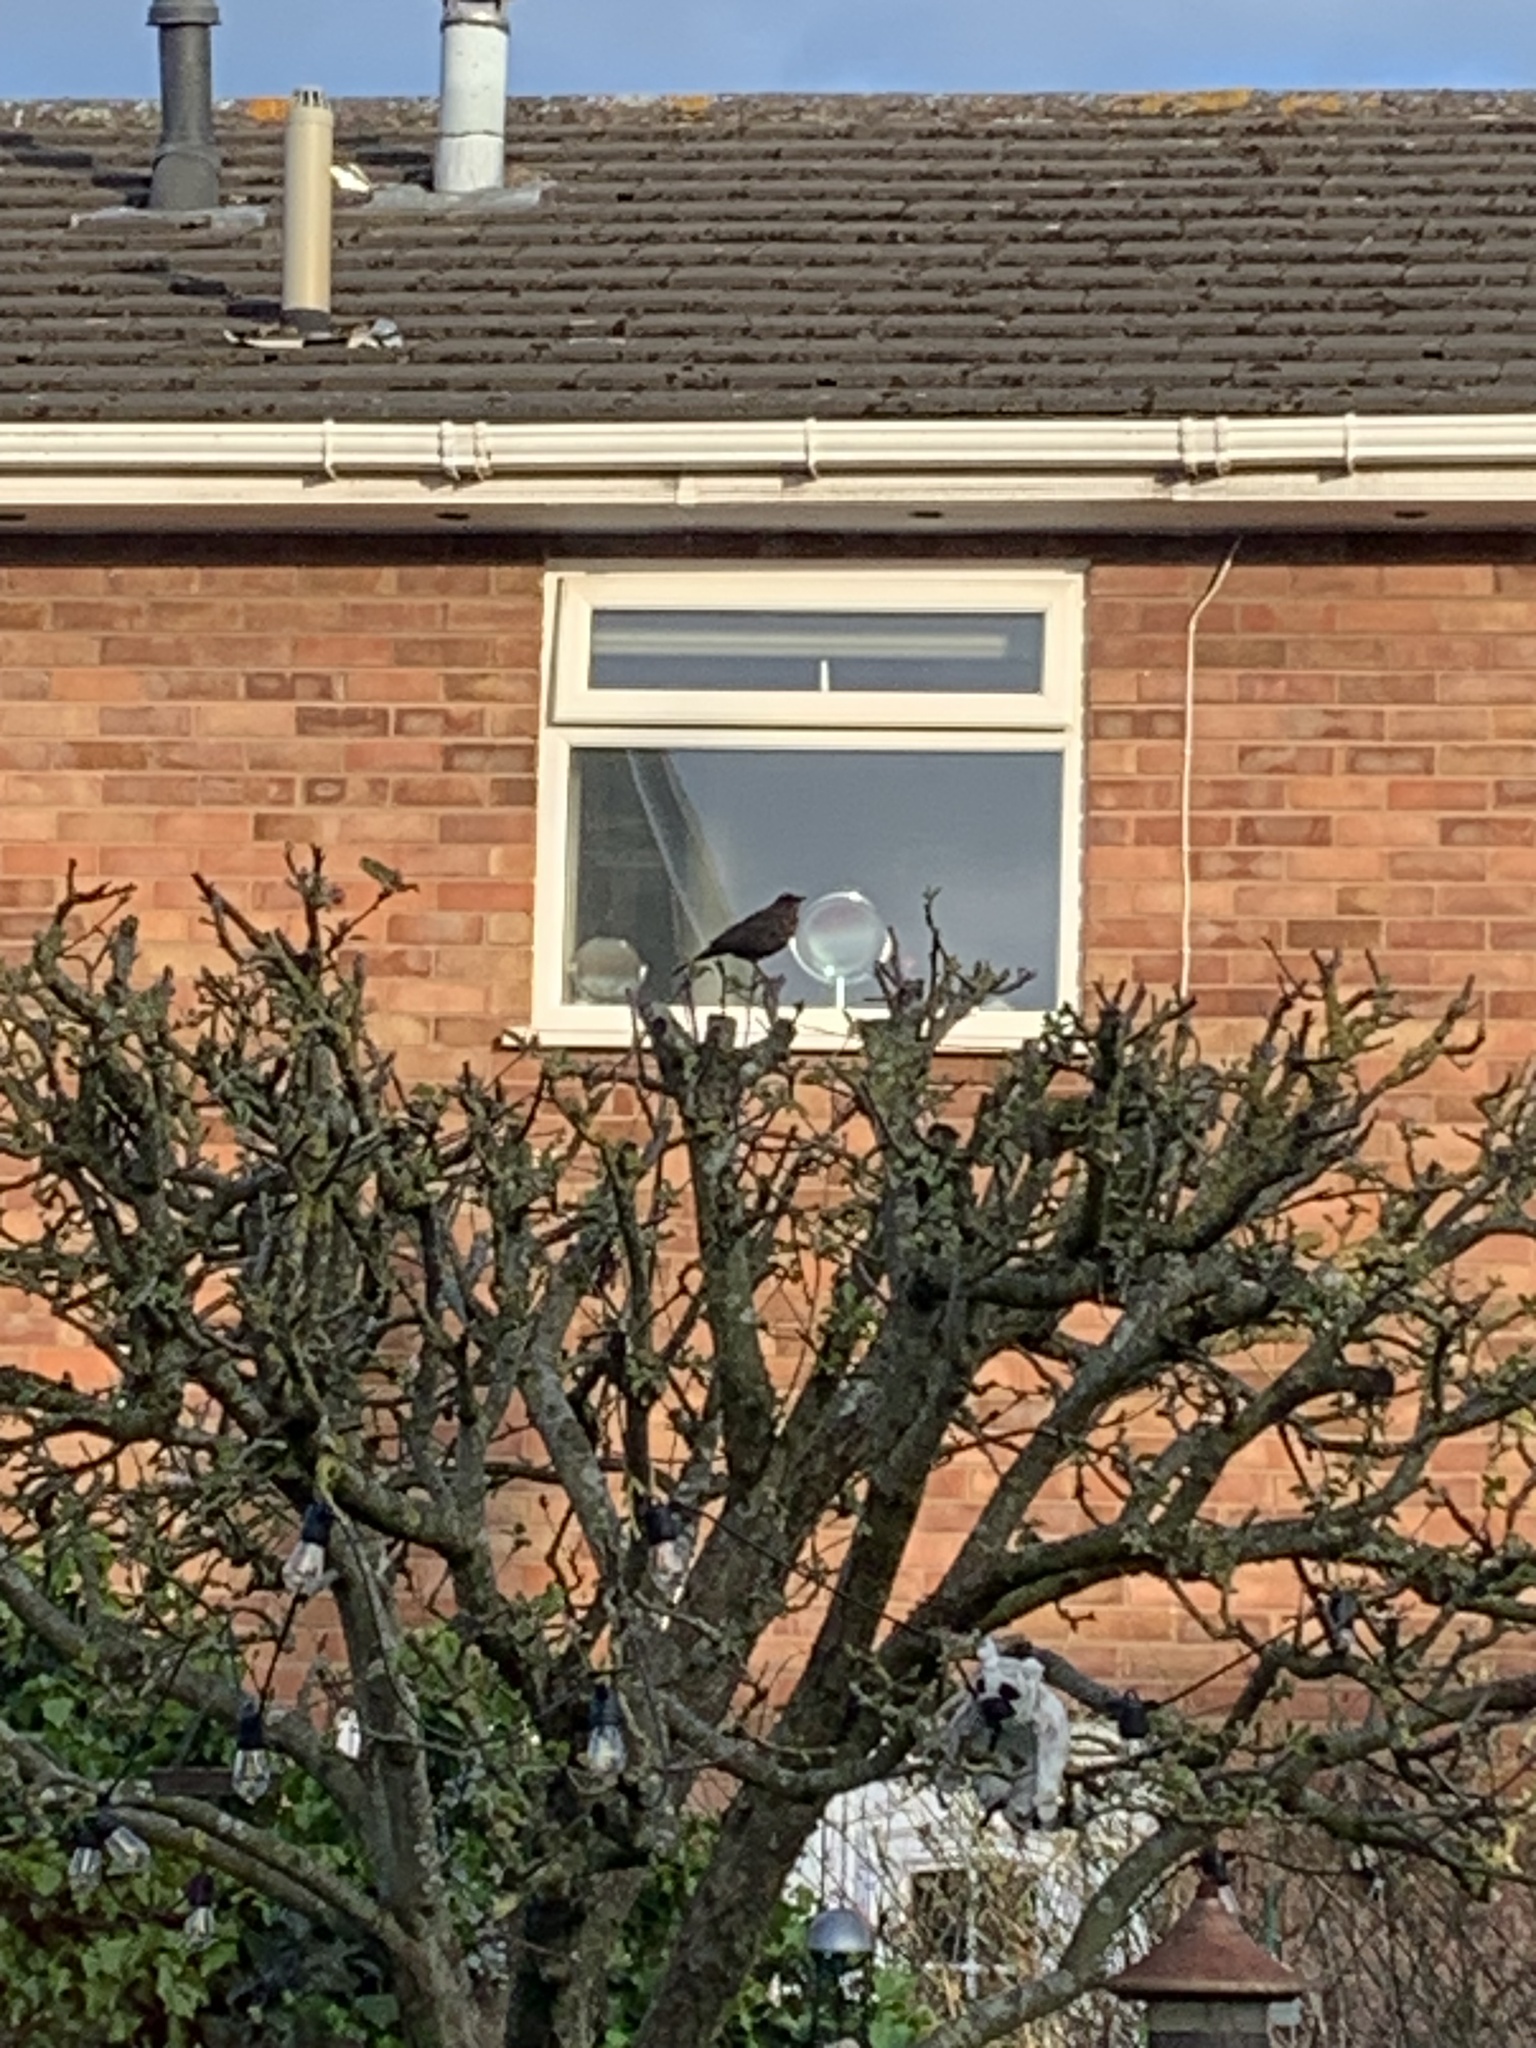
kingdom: Animalia
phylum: Chordata
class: Aves
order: Passeriformes
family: Turdidae
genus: Turdus
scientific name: Turdus merula
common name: Common blackbird
